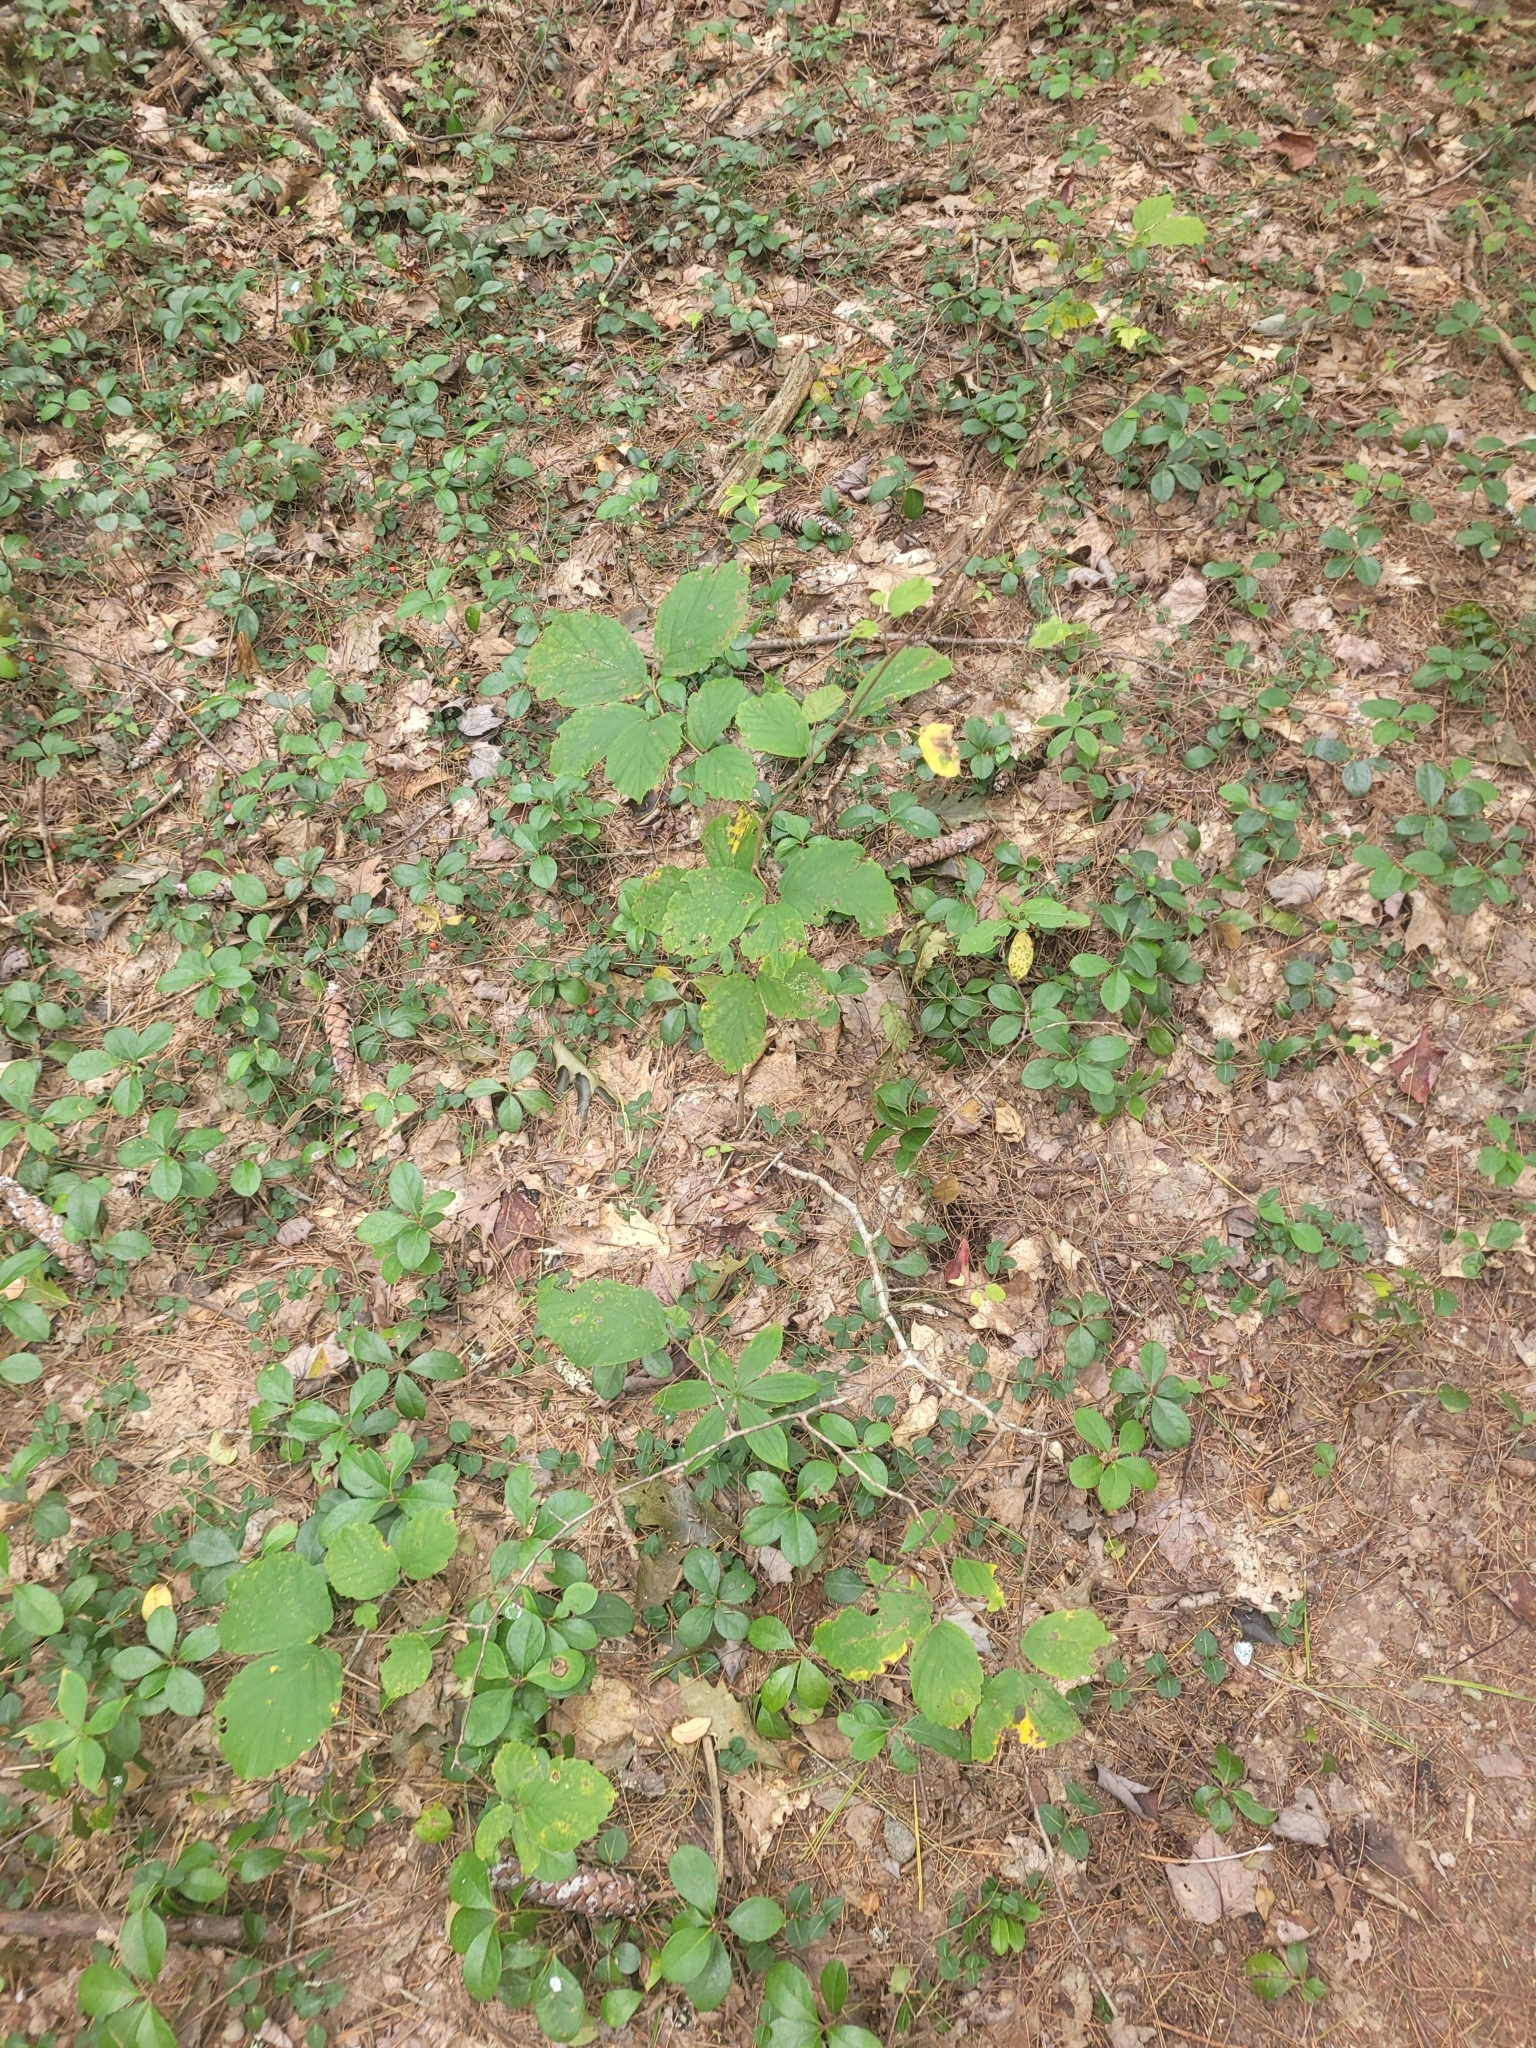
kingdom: Plantae
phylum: Tracheophyta
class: Magnoliopsida
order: Saxifragales
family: Hamamelidaceae
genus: Hamamelis
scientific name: Hamamelis virginiana
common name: Witch-hazel
